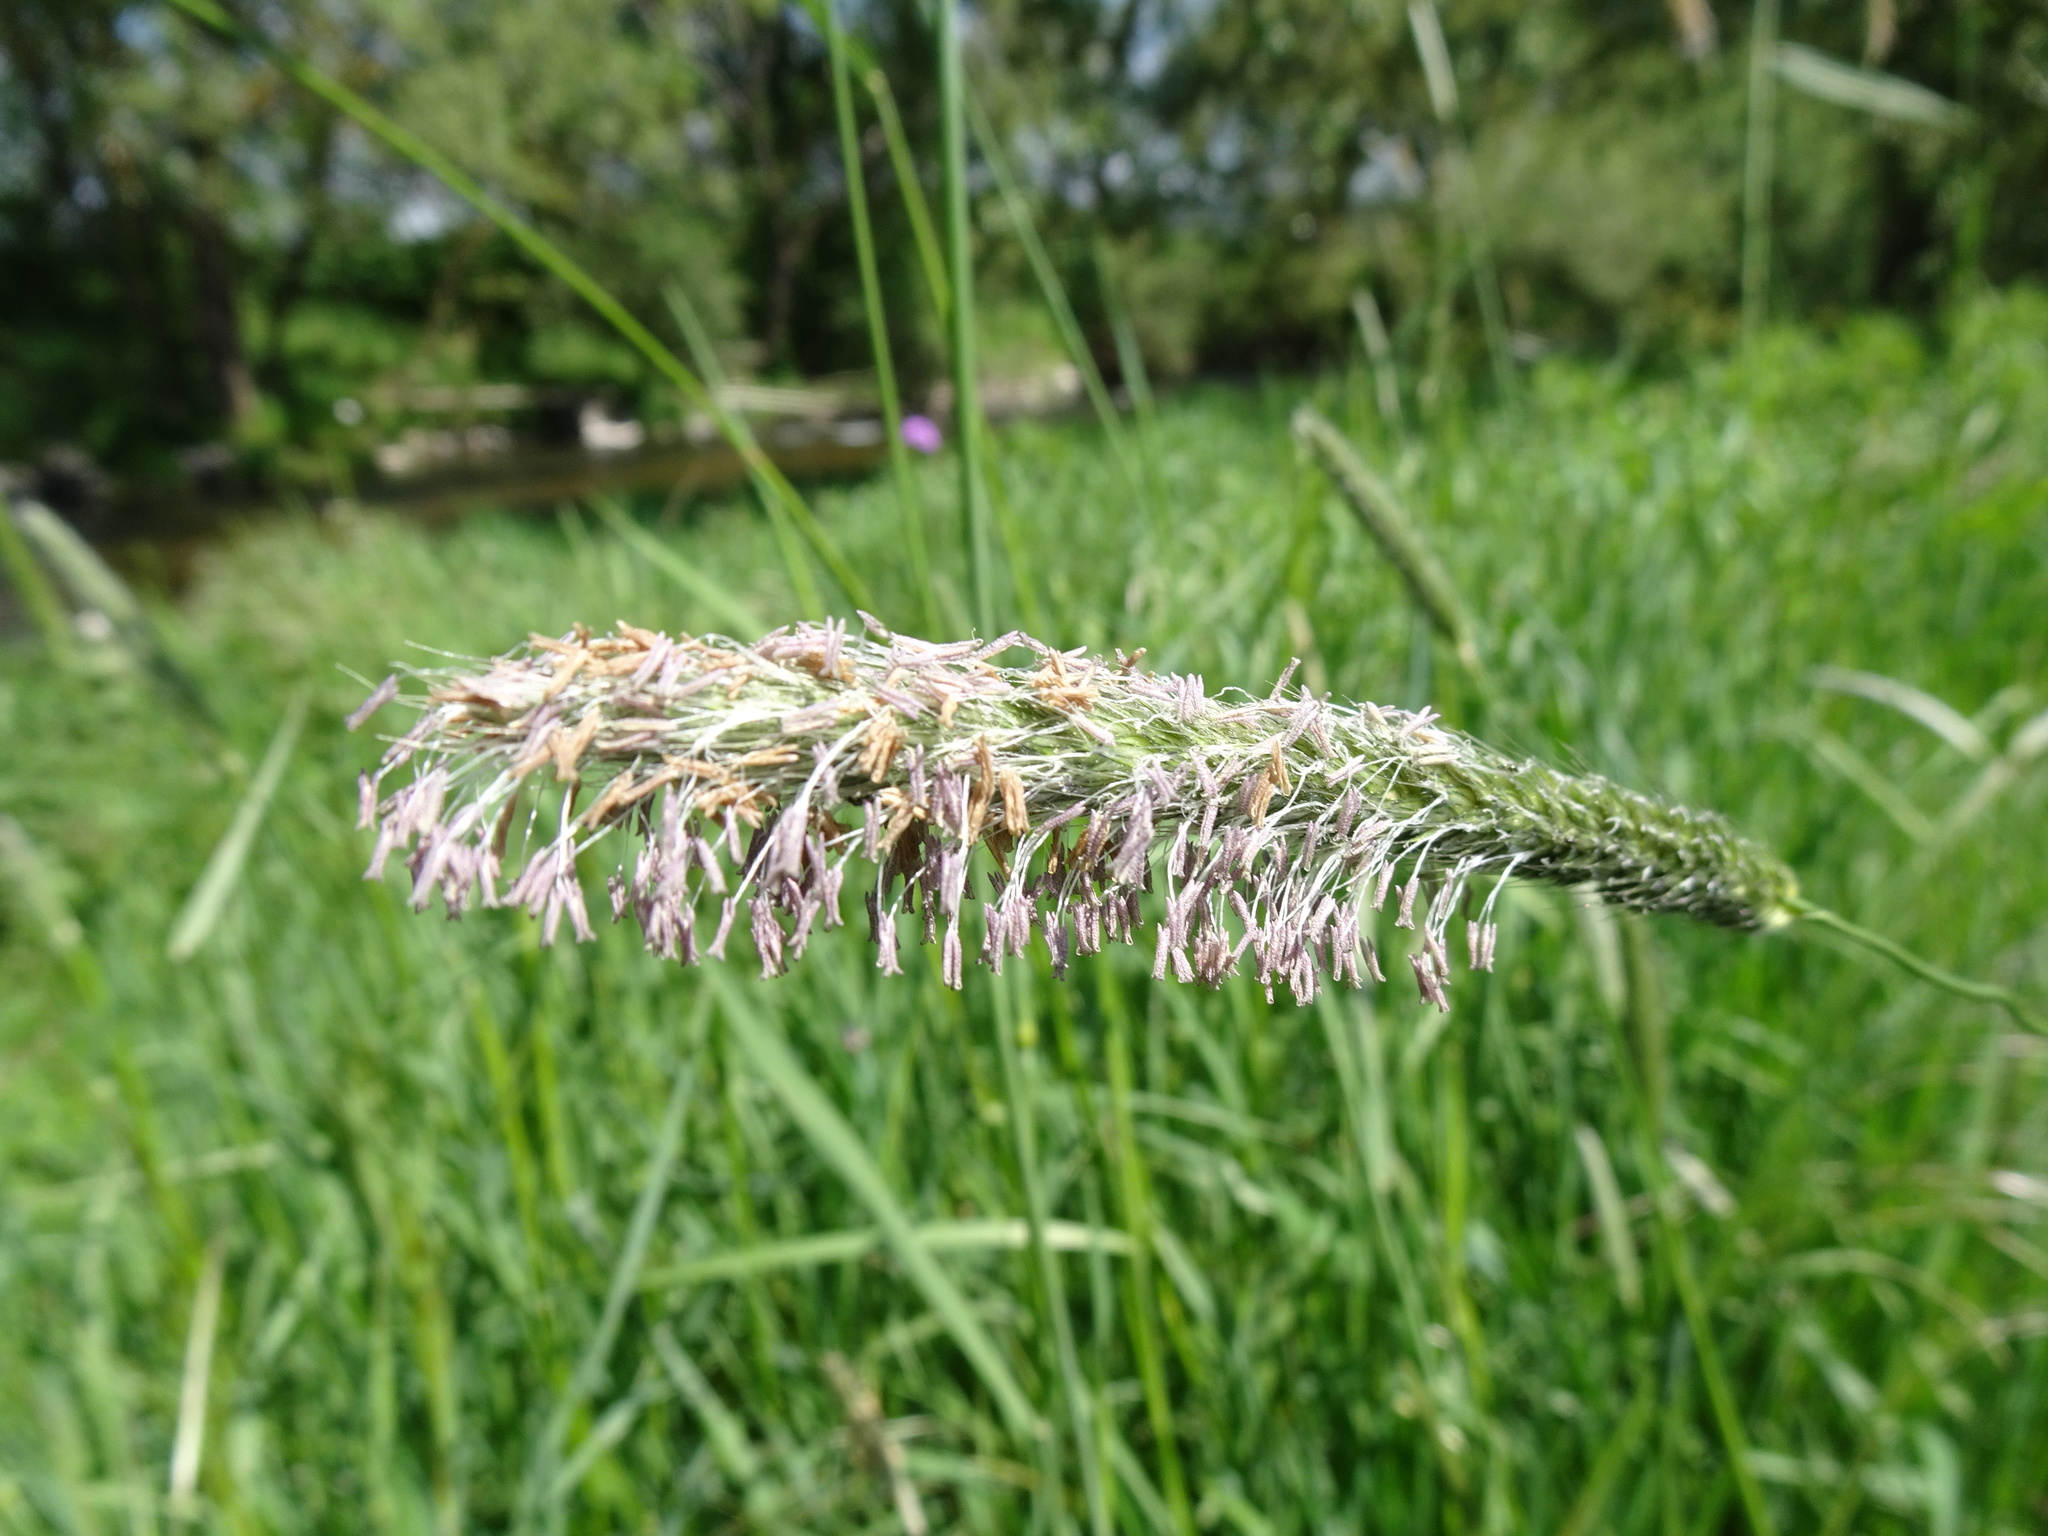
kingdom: Plantae
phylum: Tracheophyta
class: Liliopsida
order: Poales
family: Poaceae
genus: Alopecurus
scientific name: Alopecurus pratensis
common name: Meadow foxtail
